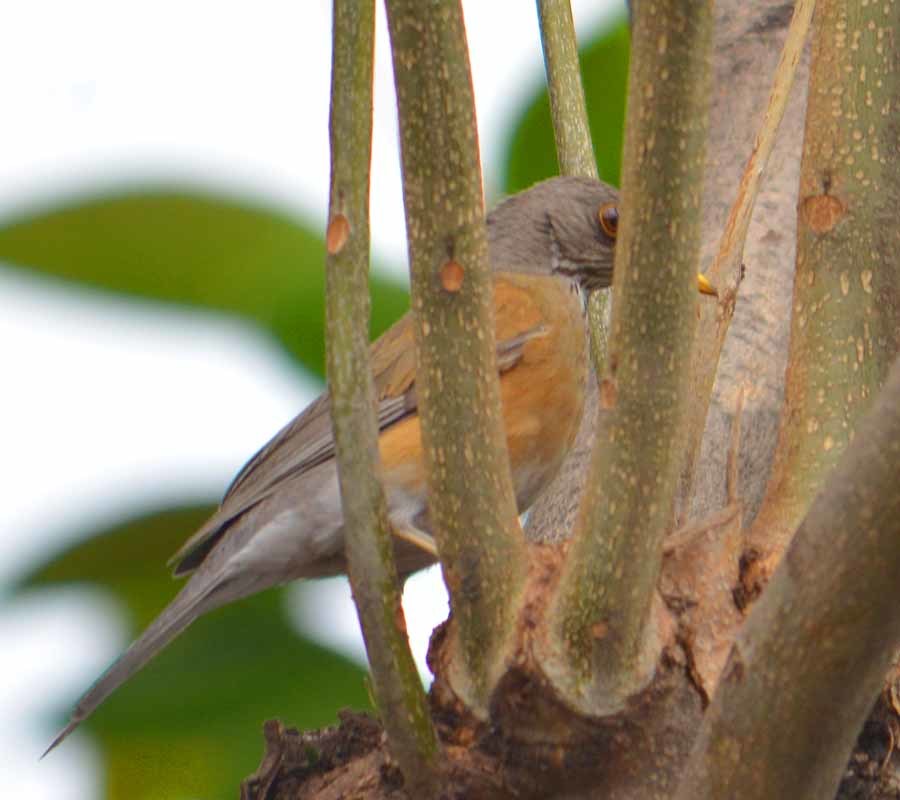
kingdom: Animalia
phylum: Chordata
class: Aves
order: Passeriformes
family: Turdidae
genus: Turdus
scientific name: Turdus rufopalliatus
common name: Rufous-backed robin
